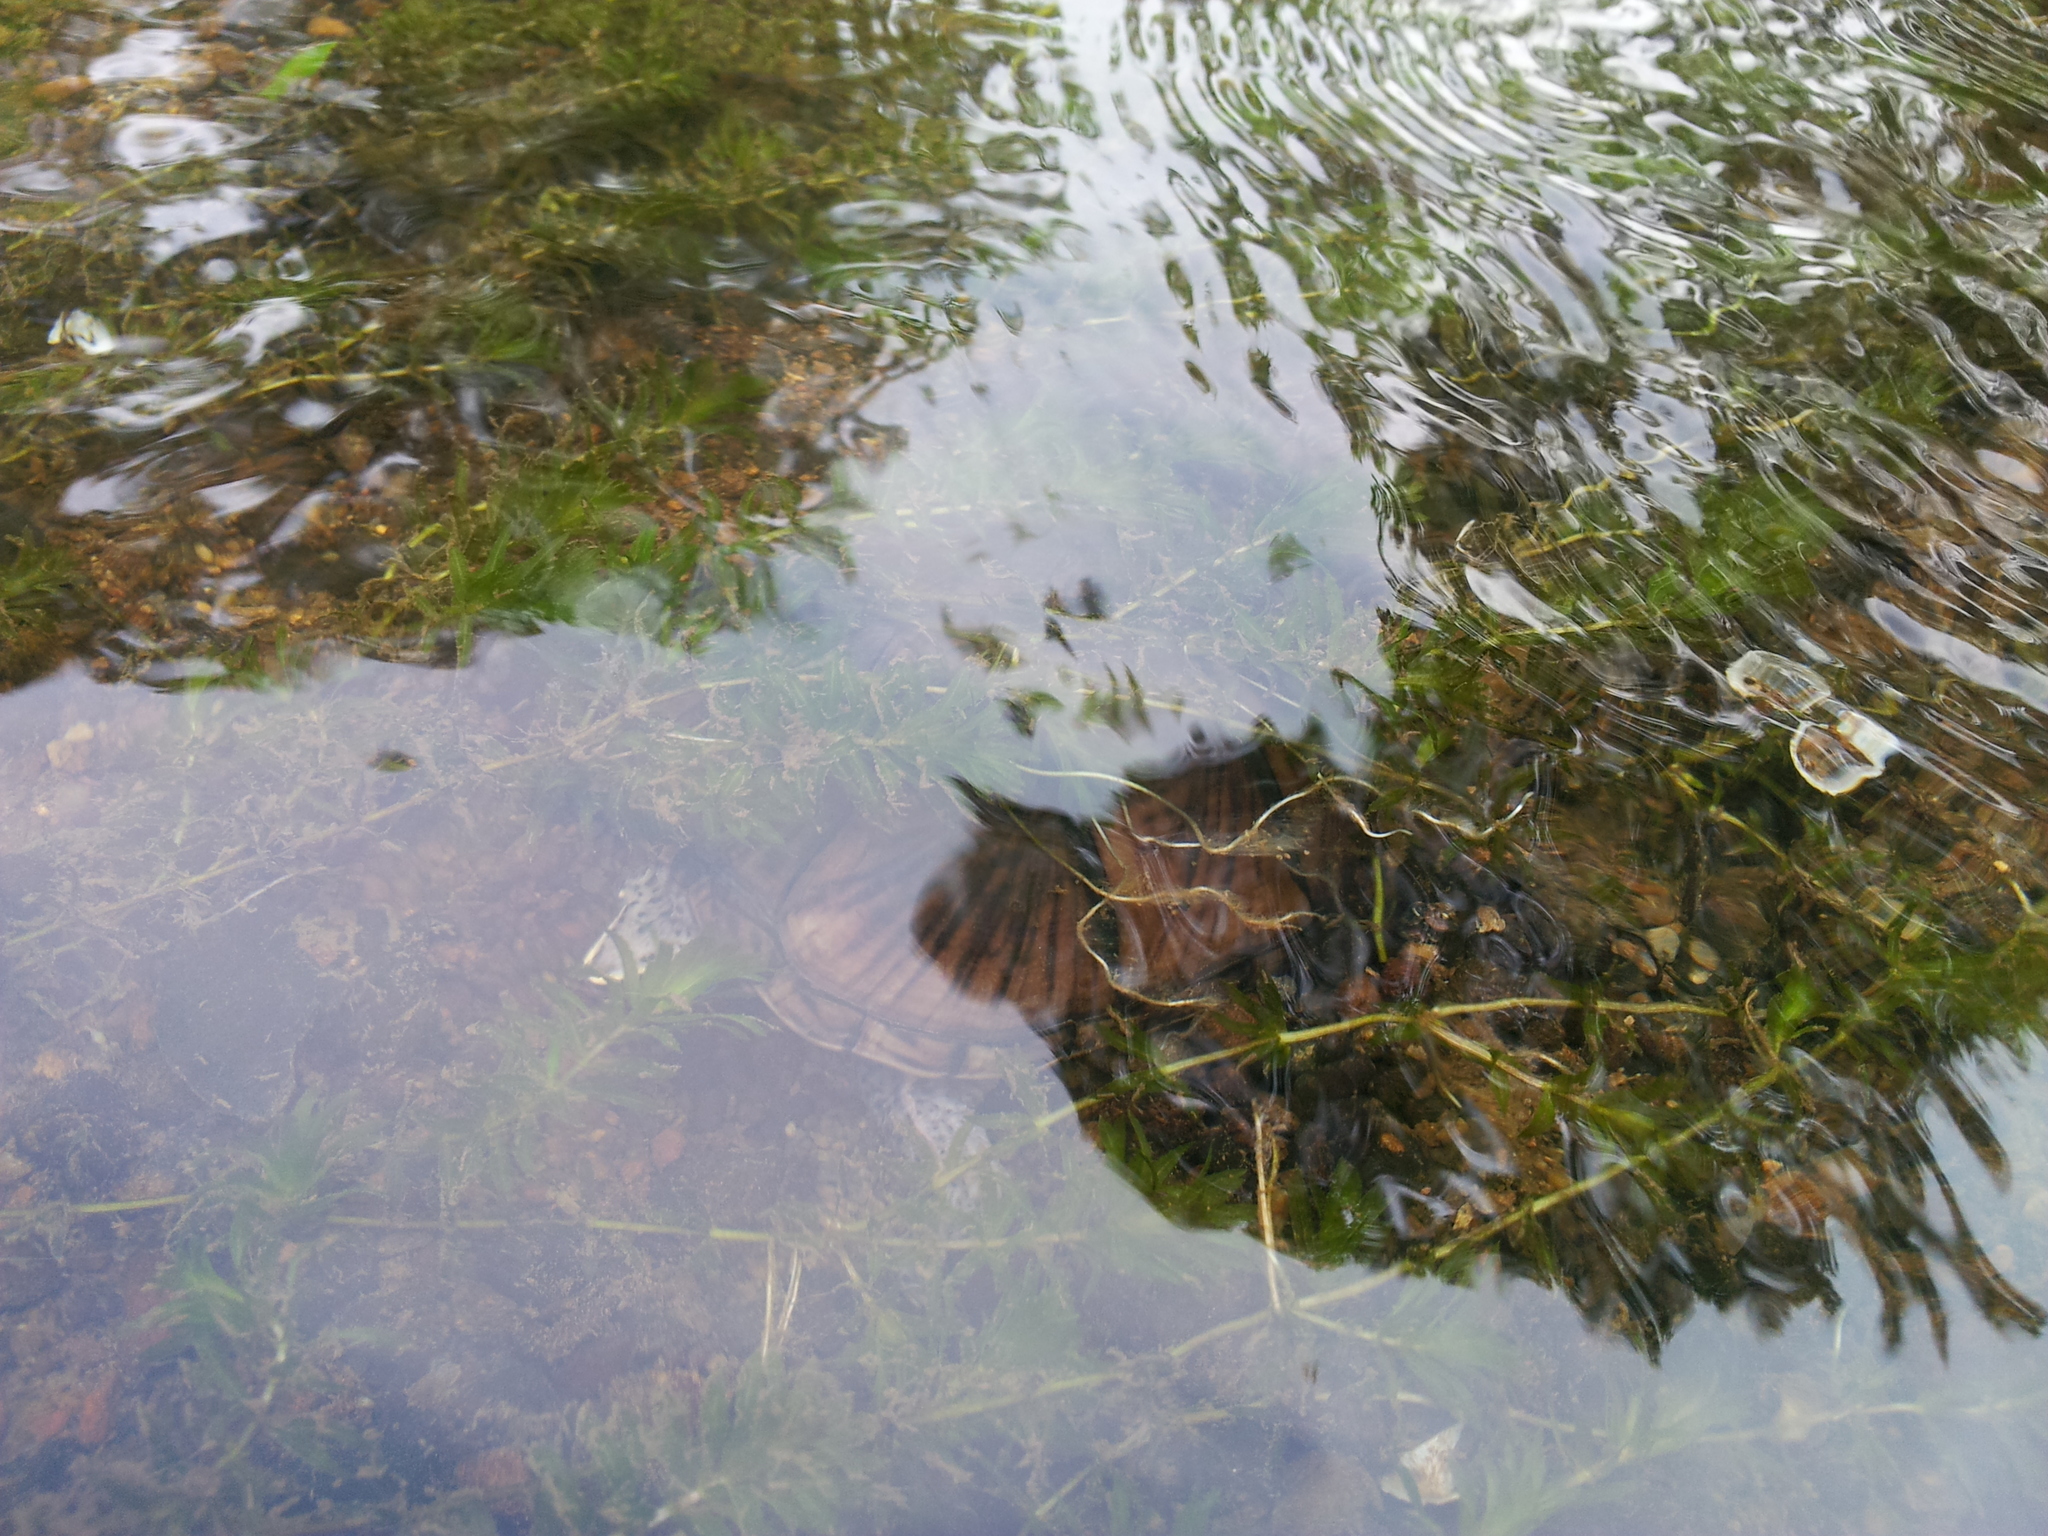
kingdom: Animalia
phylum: Chordata
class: Testudines
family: Kinosternidae
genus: Sternotherus
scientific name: Sternotherus odoratus
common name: Common musk turtle
